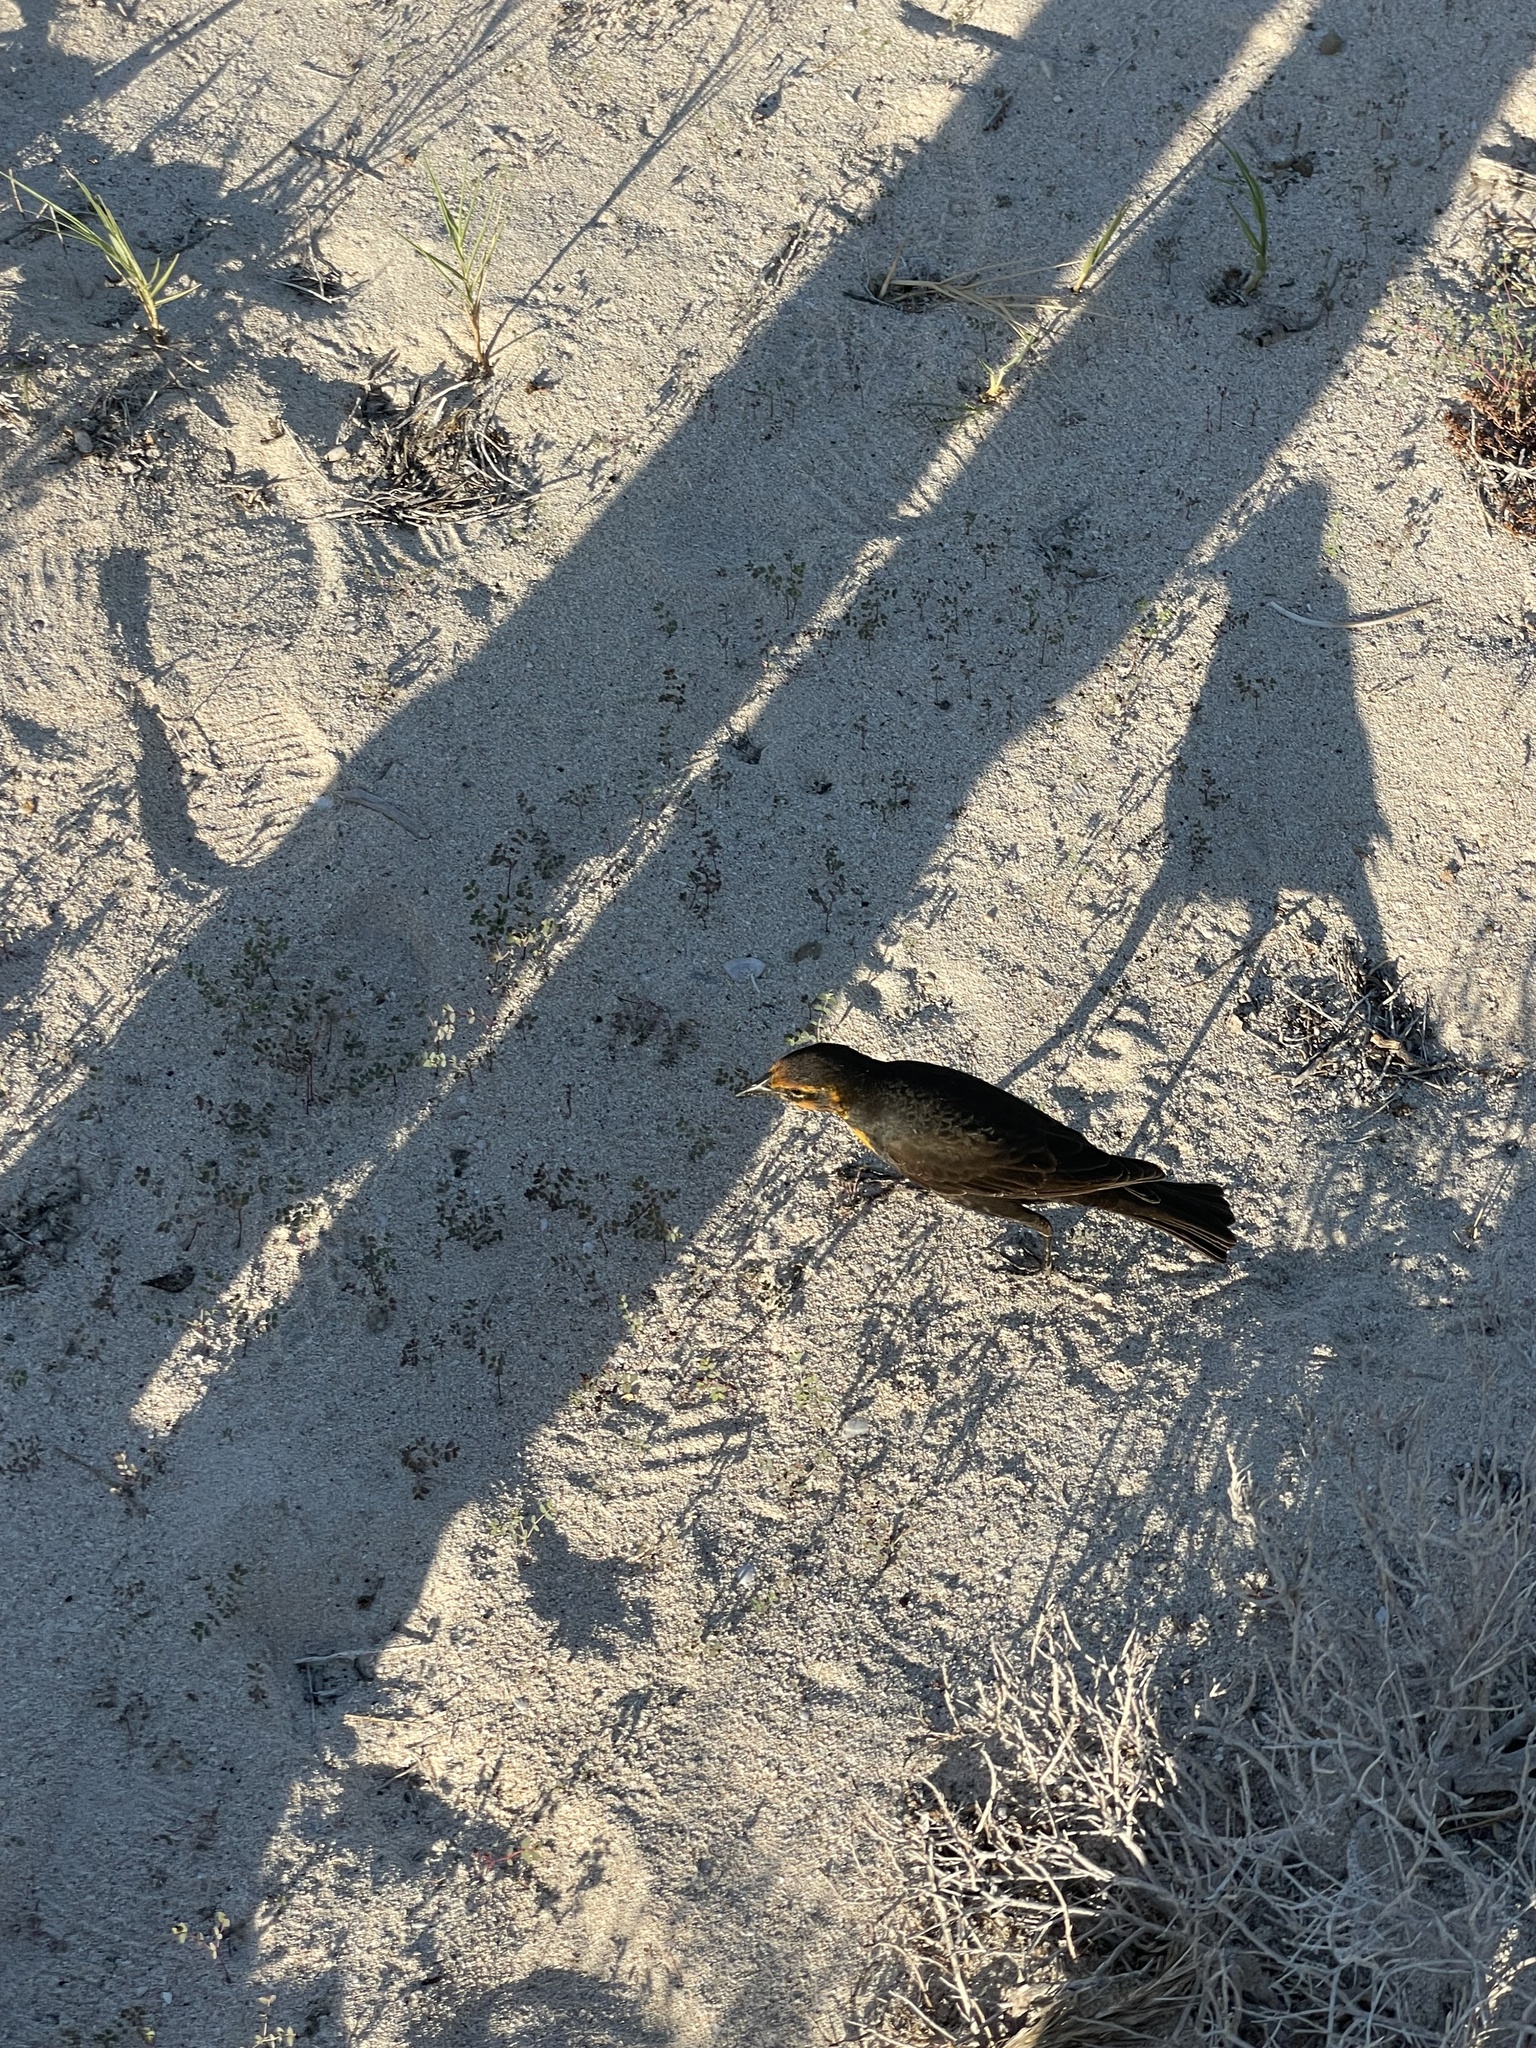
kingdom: Animalia
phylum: Chordata
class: Aves
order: Passeriformes
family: Icteridae
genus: Xanthocephalus
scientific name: Xanthocephalus xanthocephalus
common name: Yellow-headed blackbird
